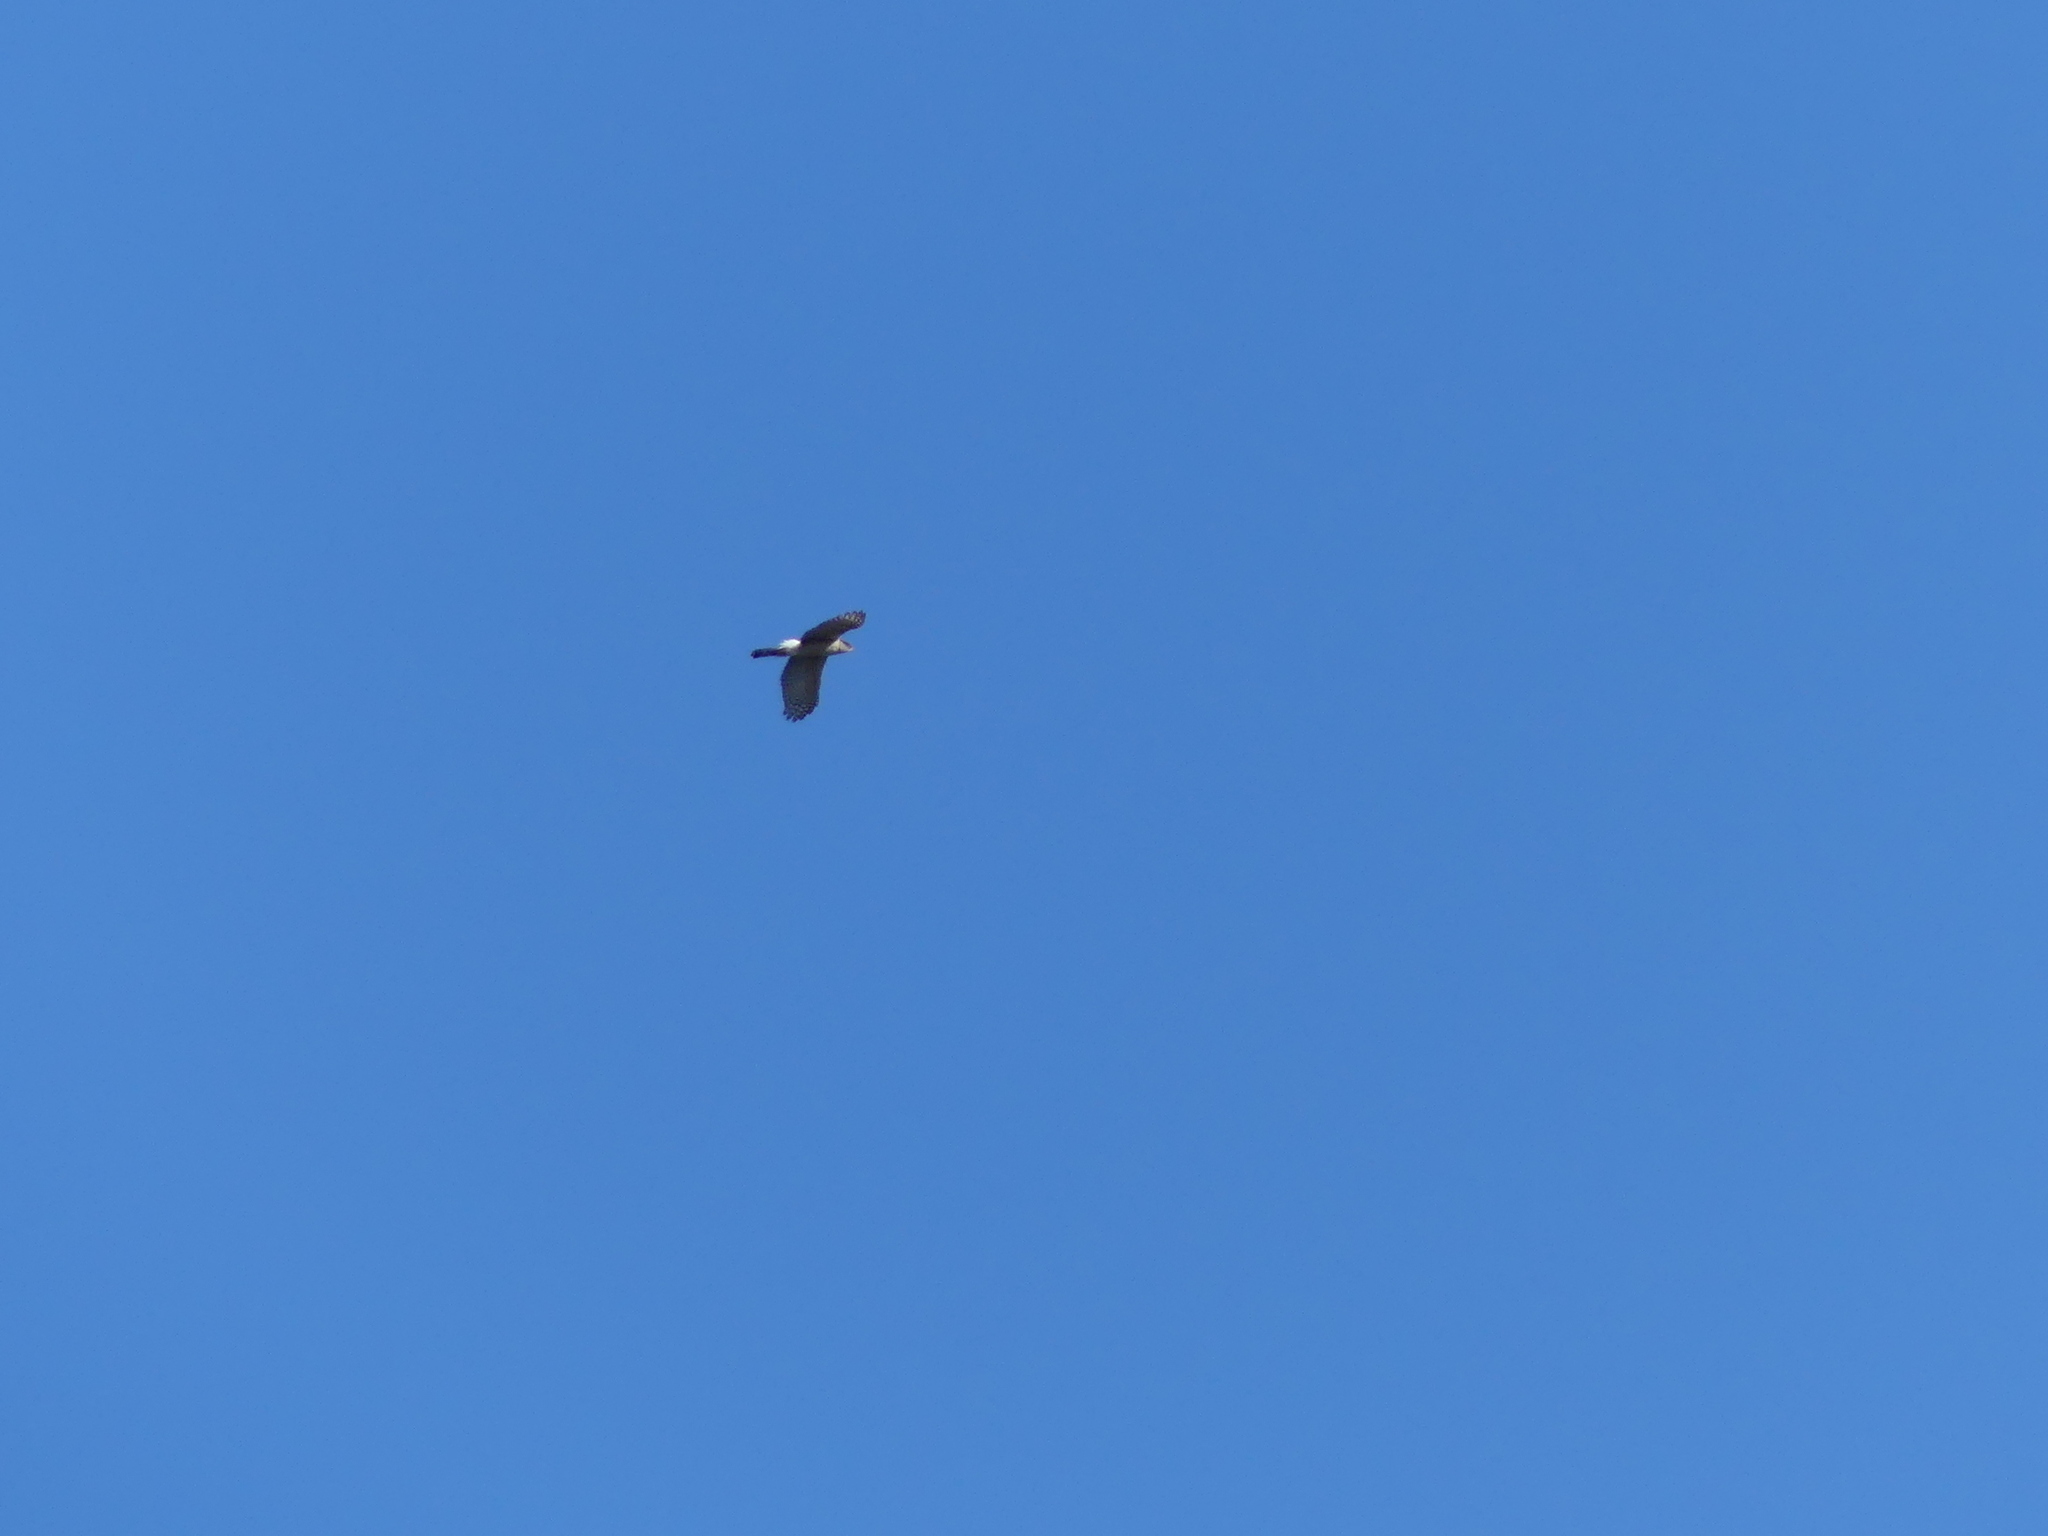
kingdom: Animalia
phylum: Chordata
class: Aves
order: Accipitriformes
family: Accipitridae
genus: Accipiter
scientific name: Accipiter cooperii
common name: Cooper's hawk
